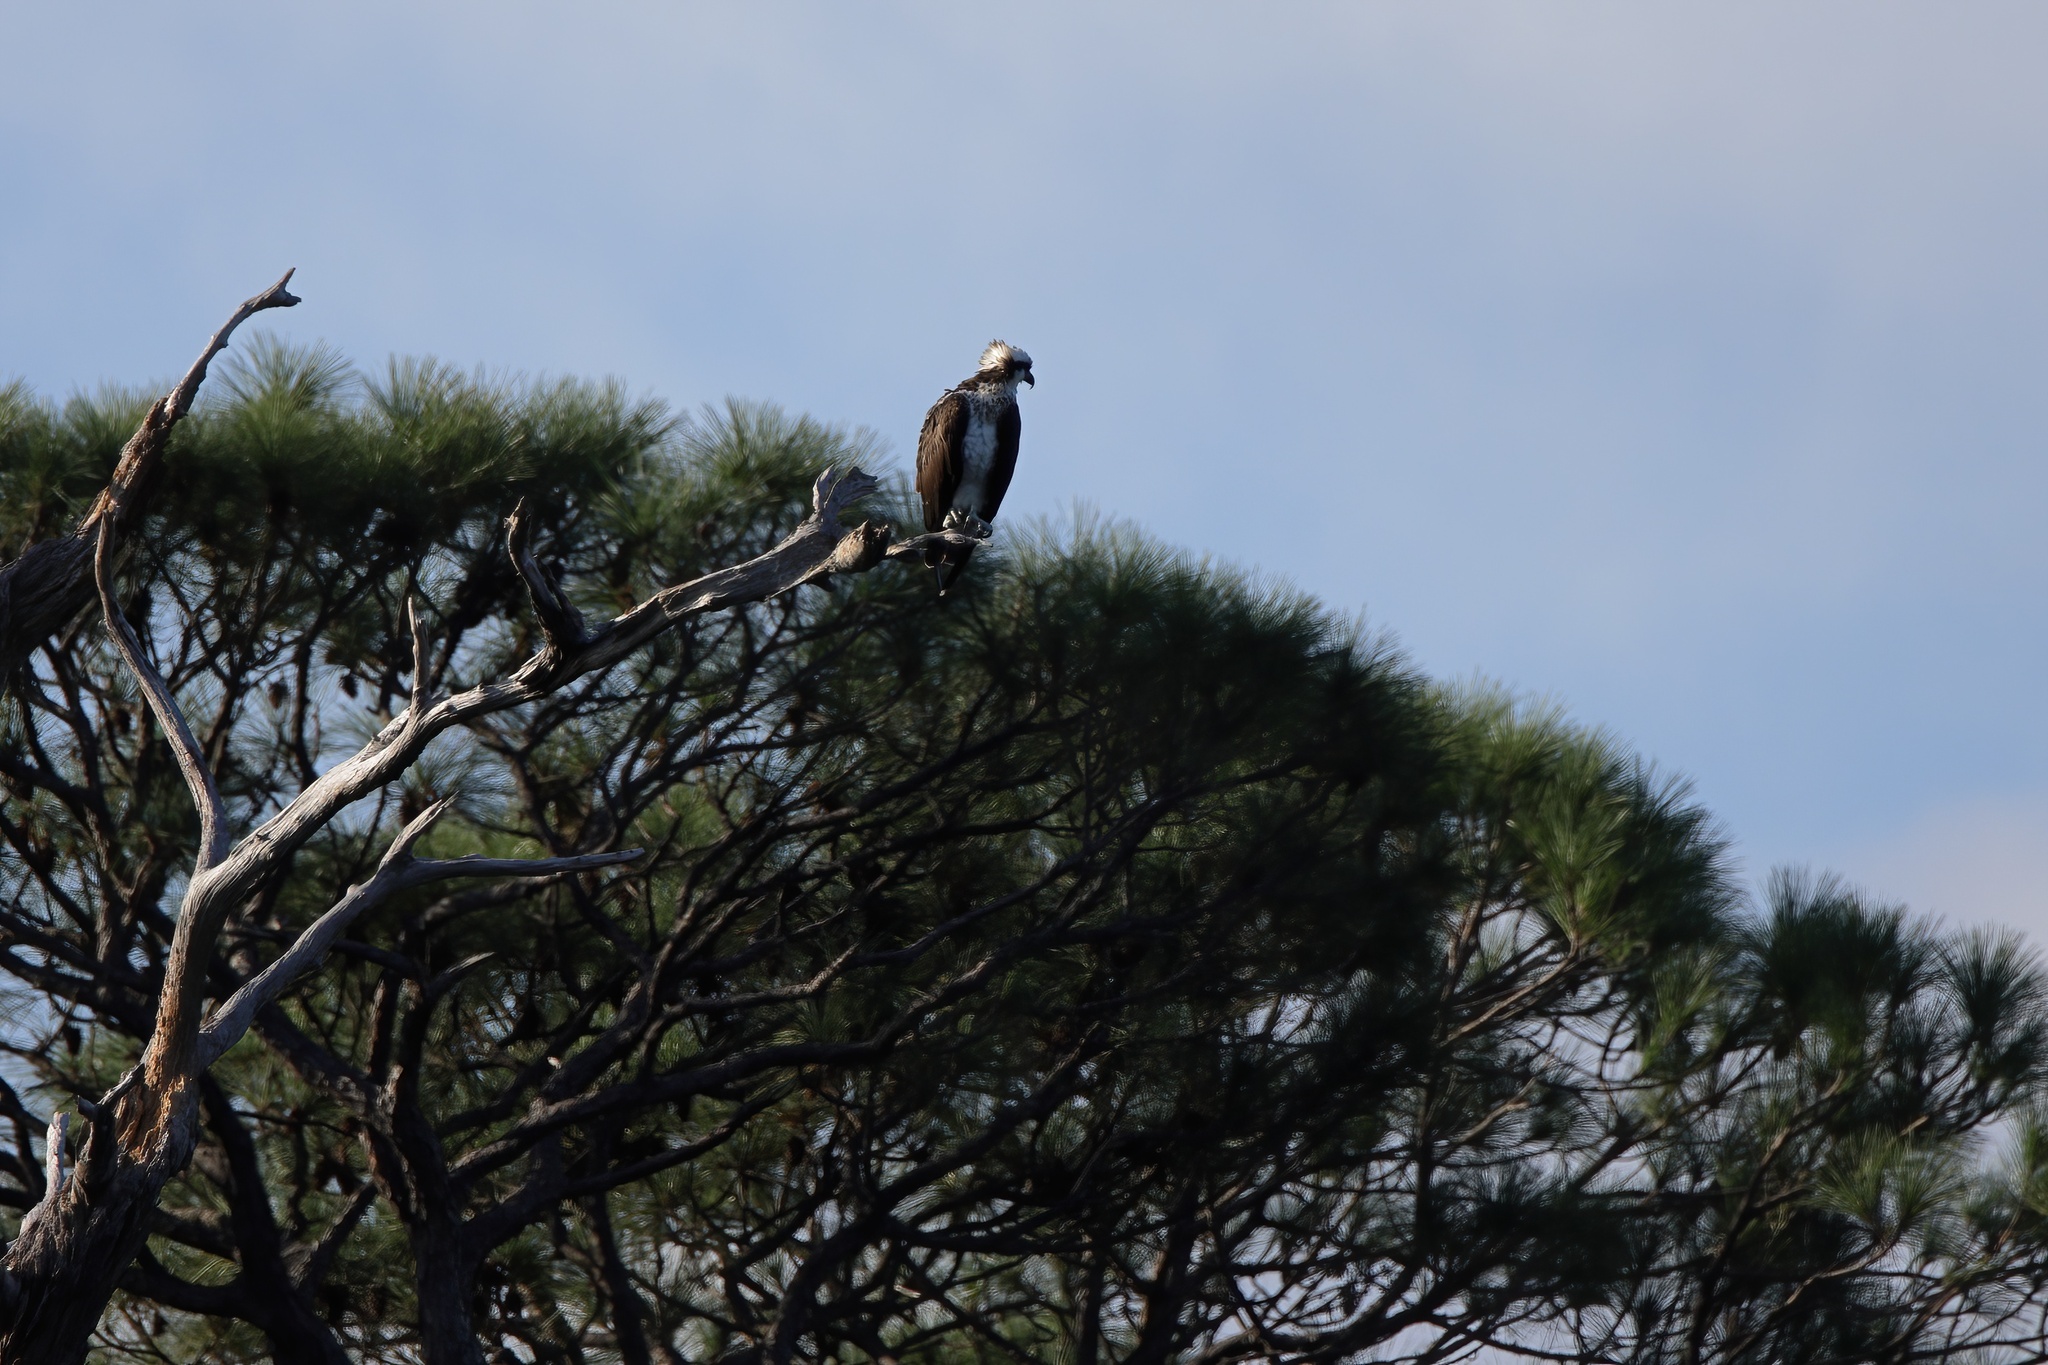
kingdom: Animalia
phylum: Chordata
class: Aves
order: Accipitriformes
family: Pandionidae
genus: Pandion
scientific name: Pandion haliaetus
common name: Osprey
